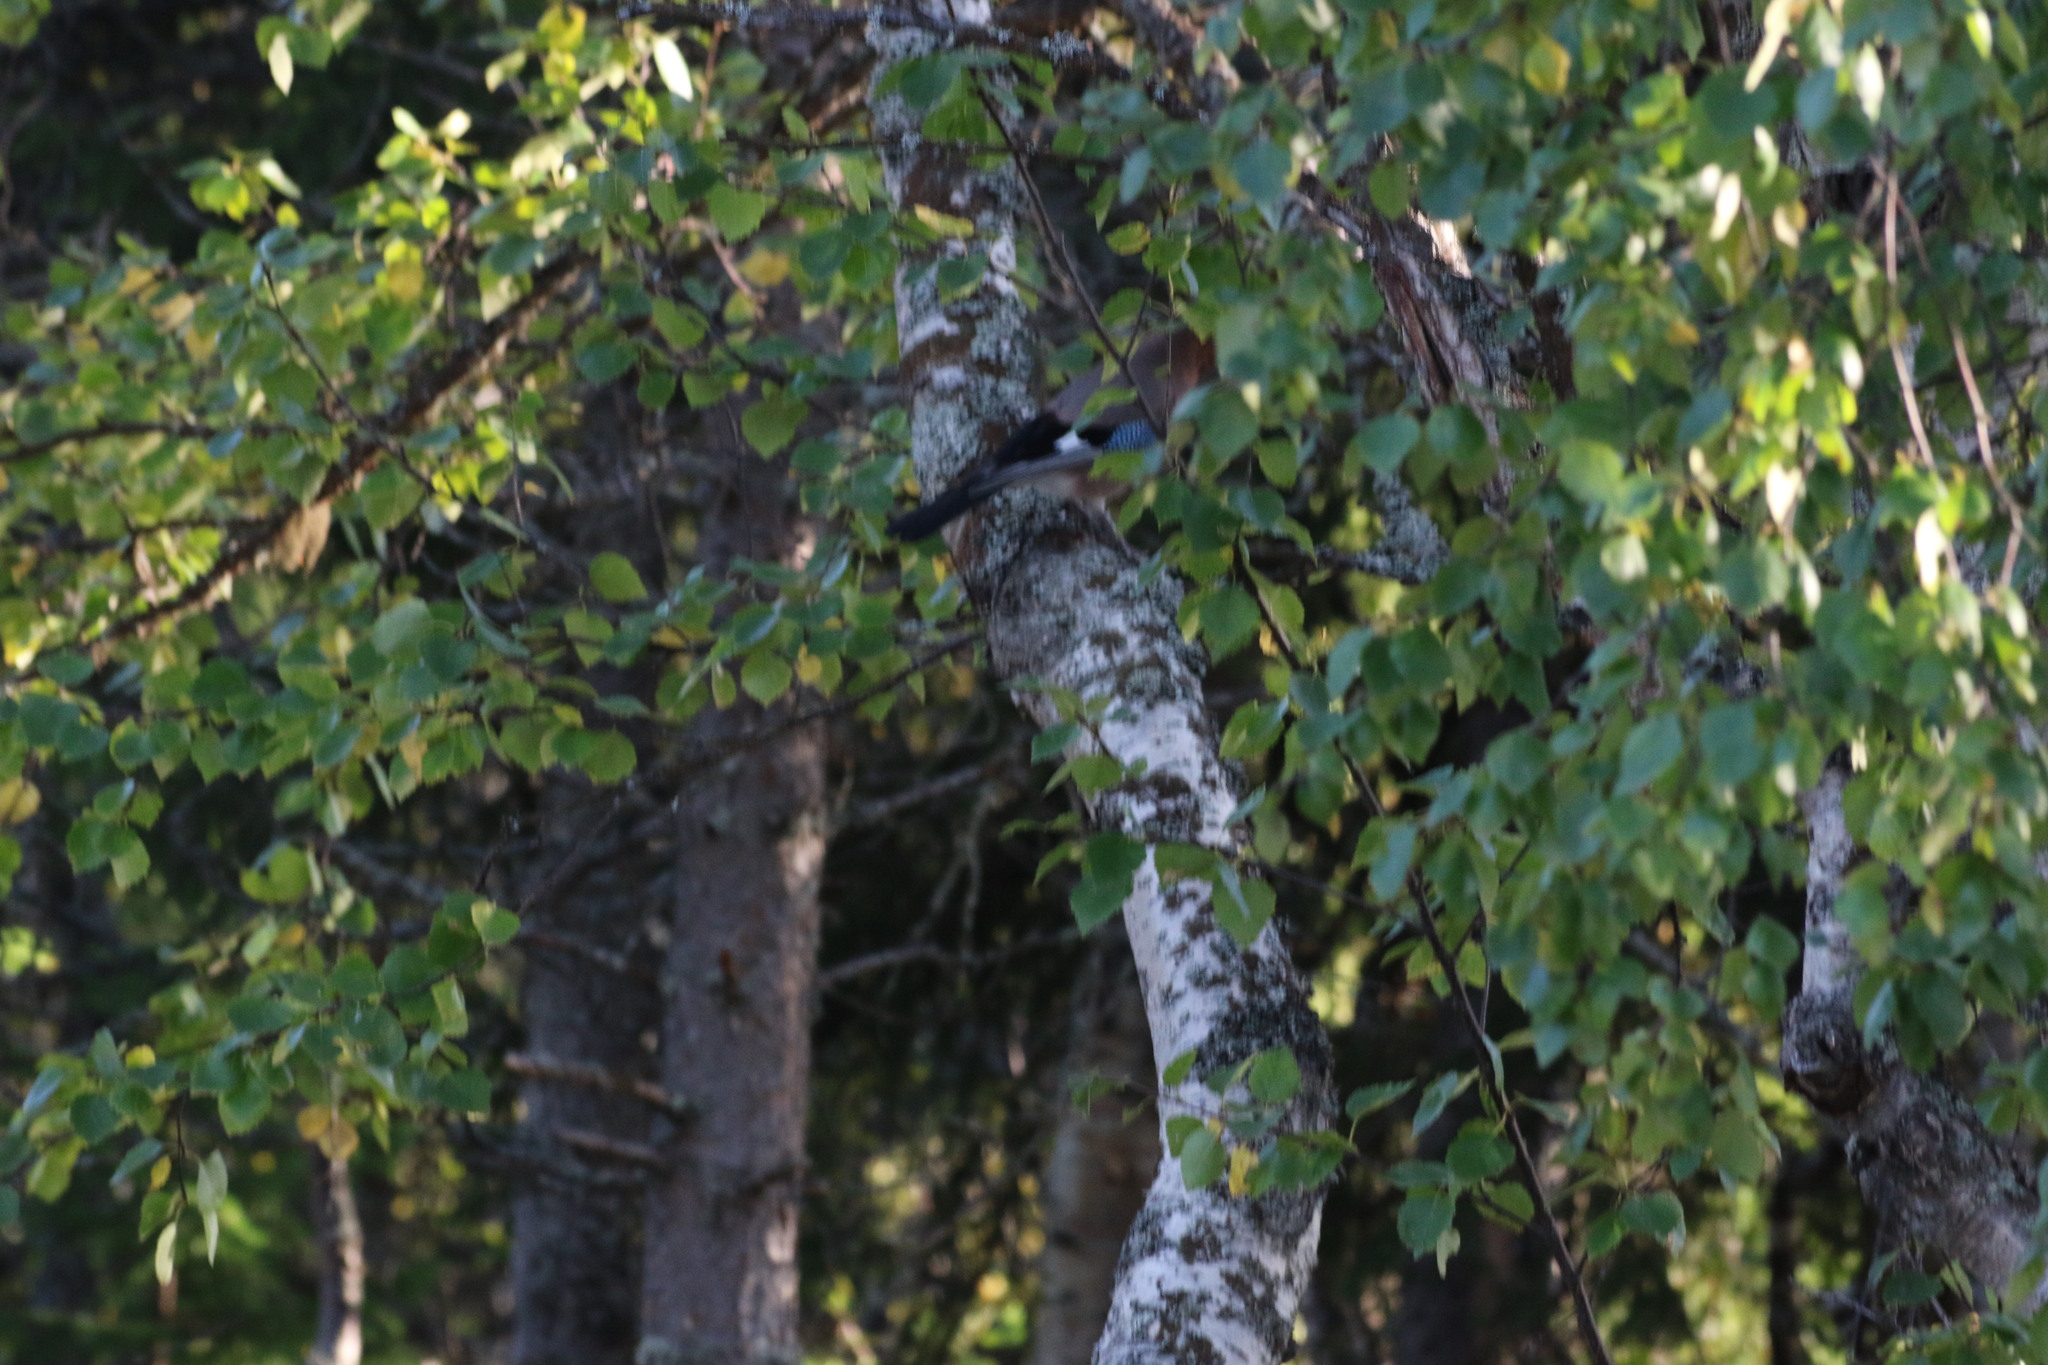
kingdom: Animalia
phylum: Chordata
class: Aves
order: Passeriformes
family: Corvidae
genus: Garrulus
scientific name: Garrulus glandarius
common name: Eurasian jay
